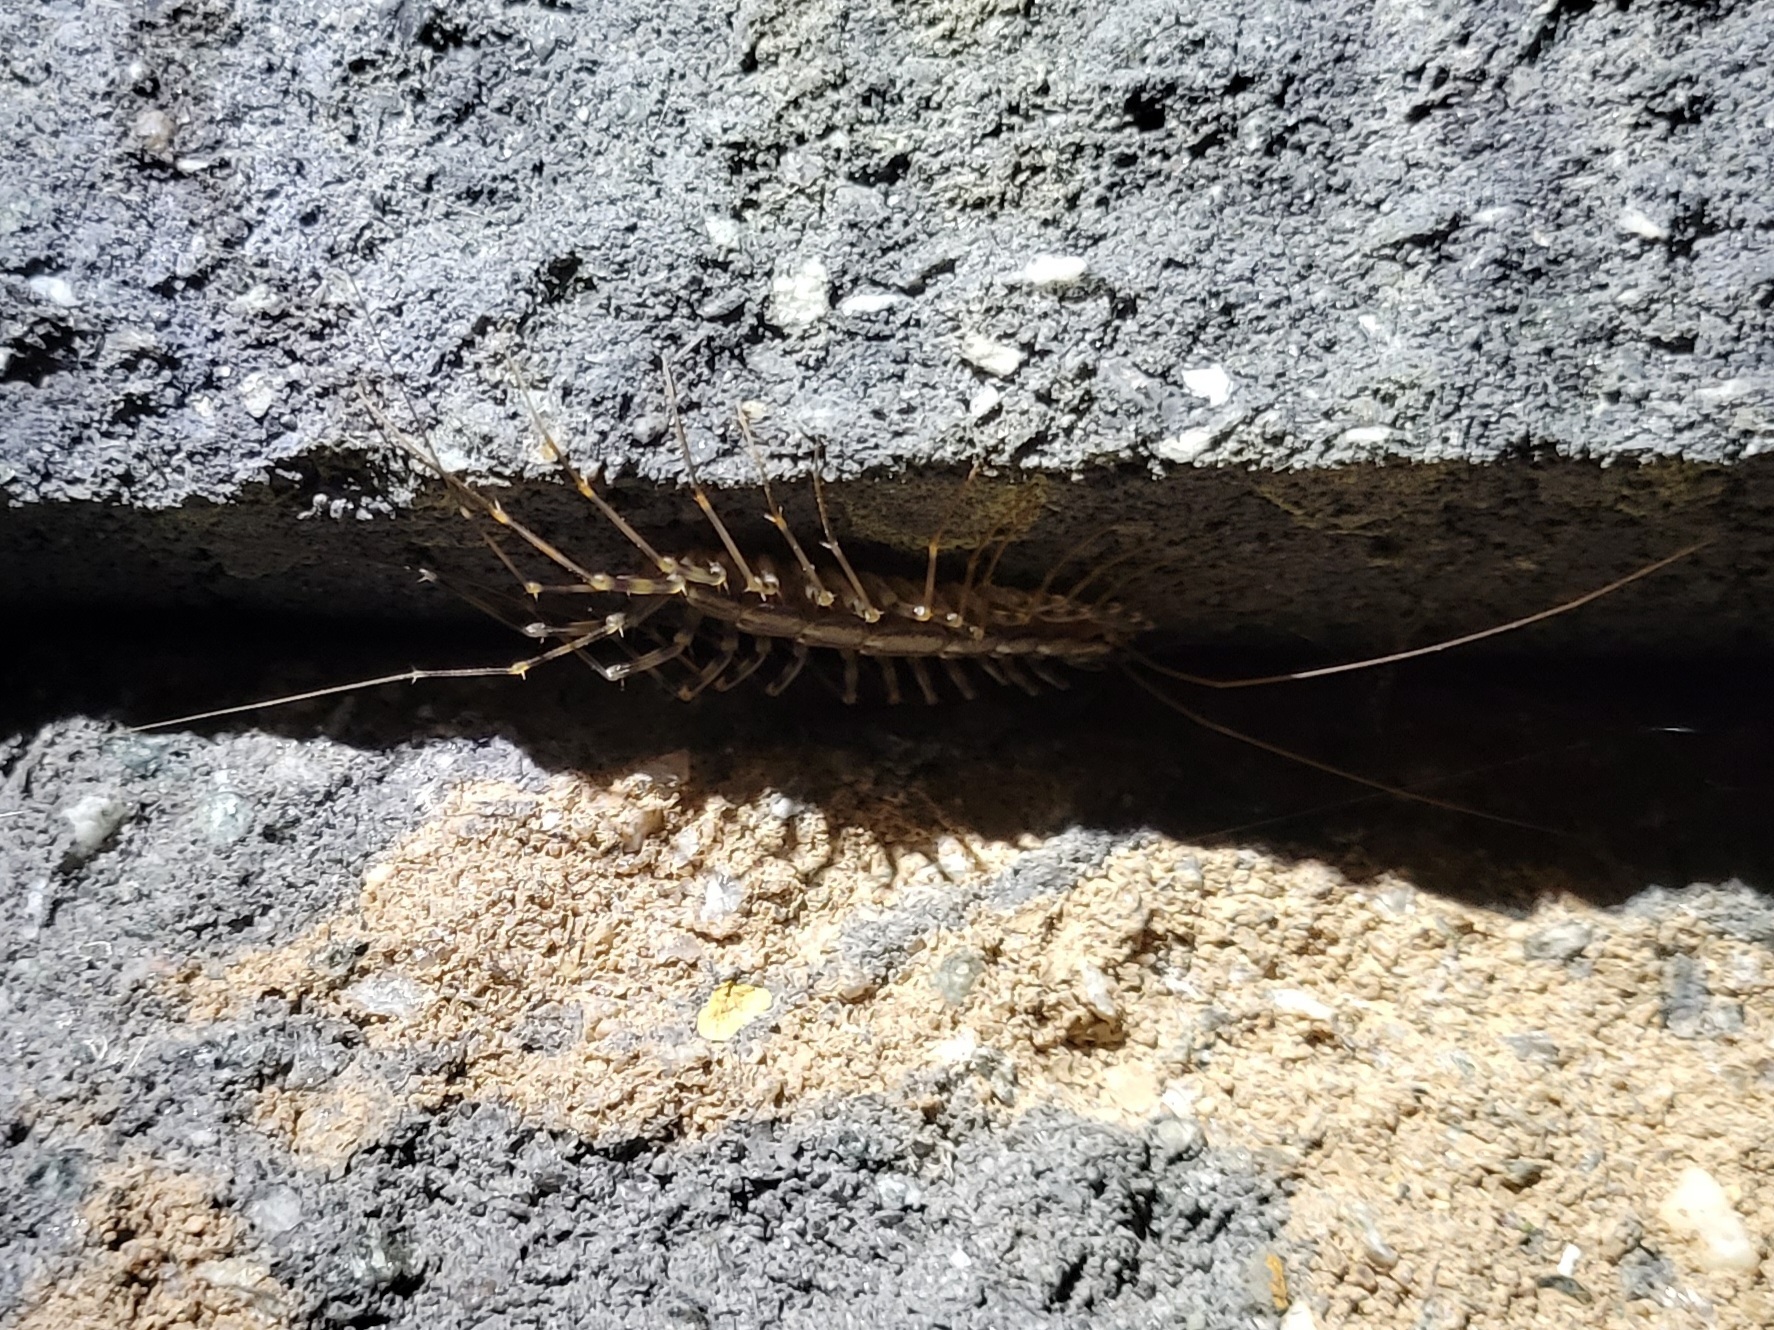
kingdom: Animalia
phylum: Arthropoda
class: Chilopoda
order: Scutigeromorpha
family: Scutigeridae
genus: Scutigera
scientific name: Scutigera coleoptrata
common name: House centipede
